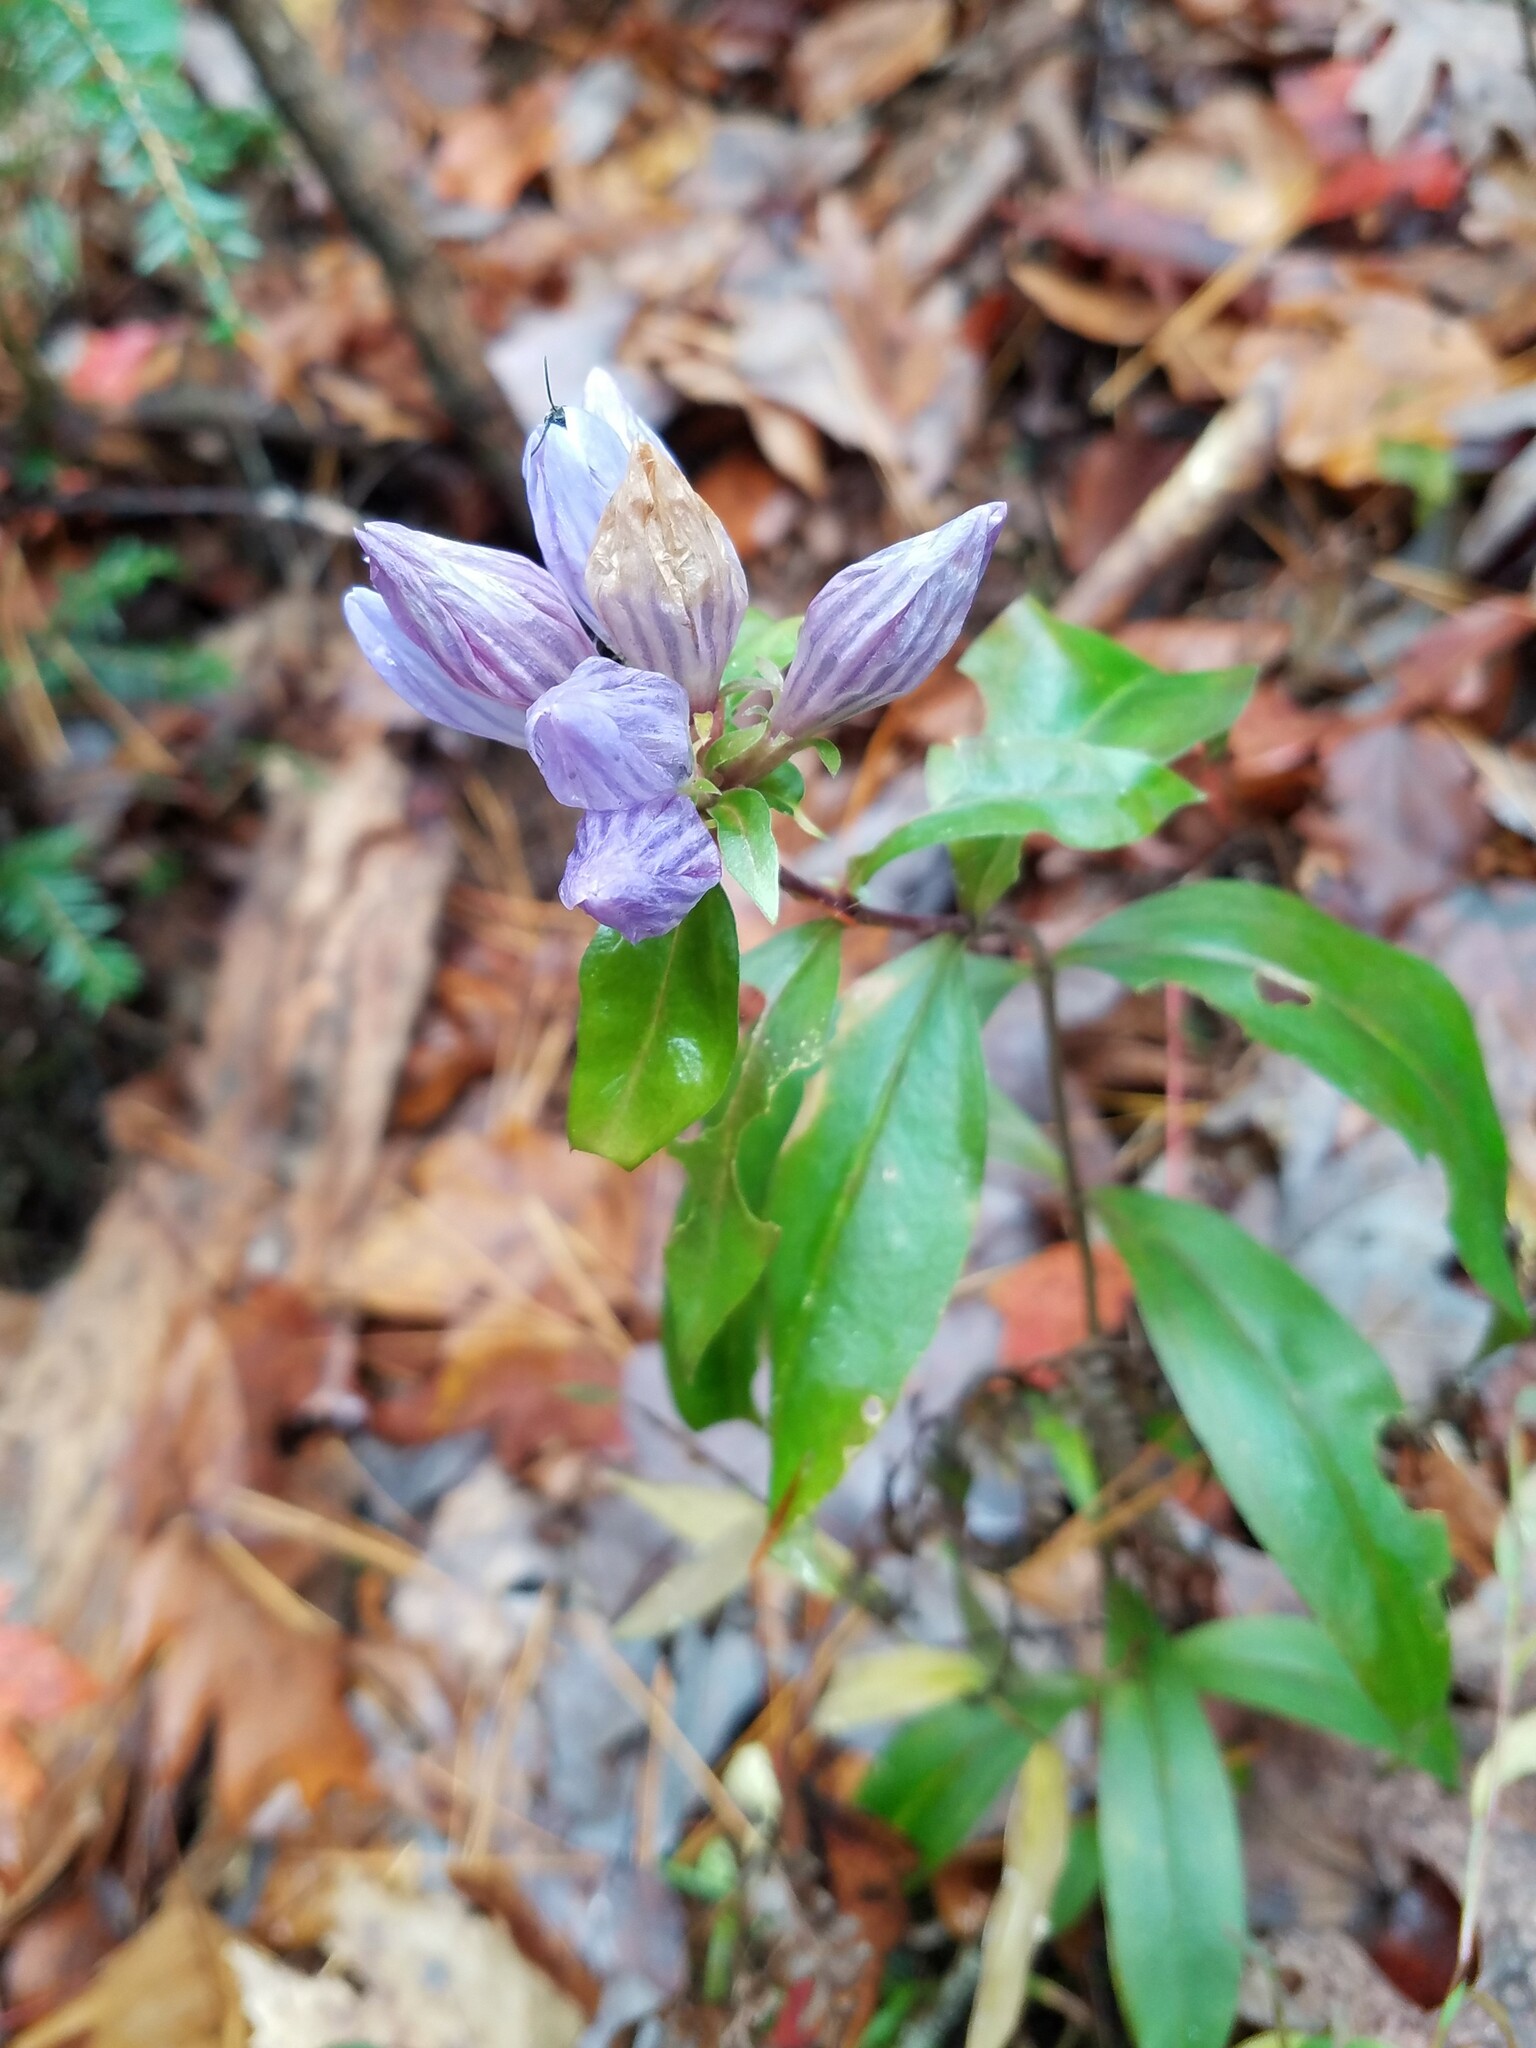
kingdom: Plantae
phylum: Tracheophyta
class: Magnoliopsida
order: Gentianales
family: Gentianaceae
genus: Gentiana
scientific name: Gentiana decora
